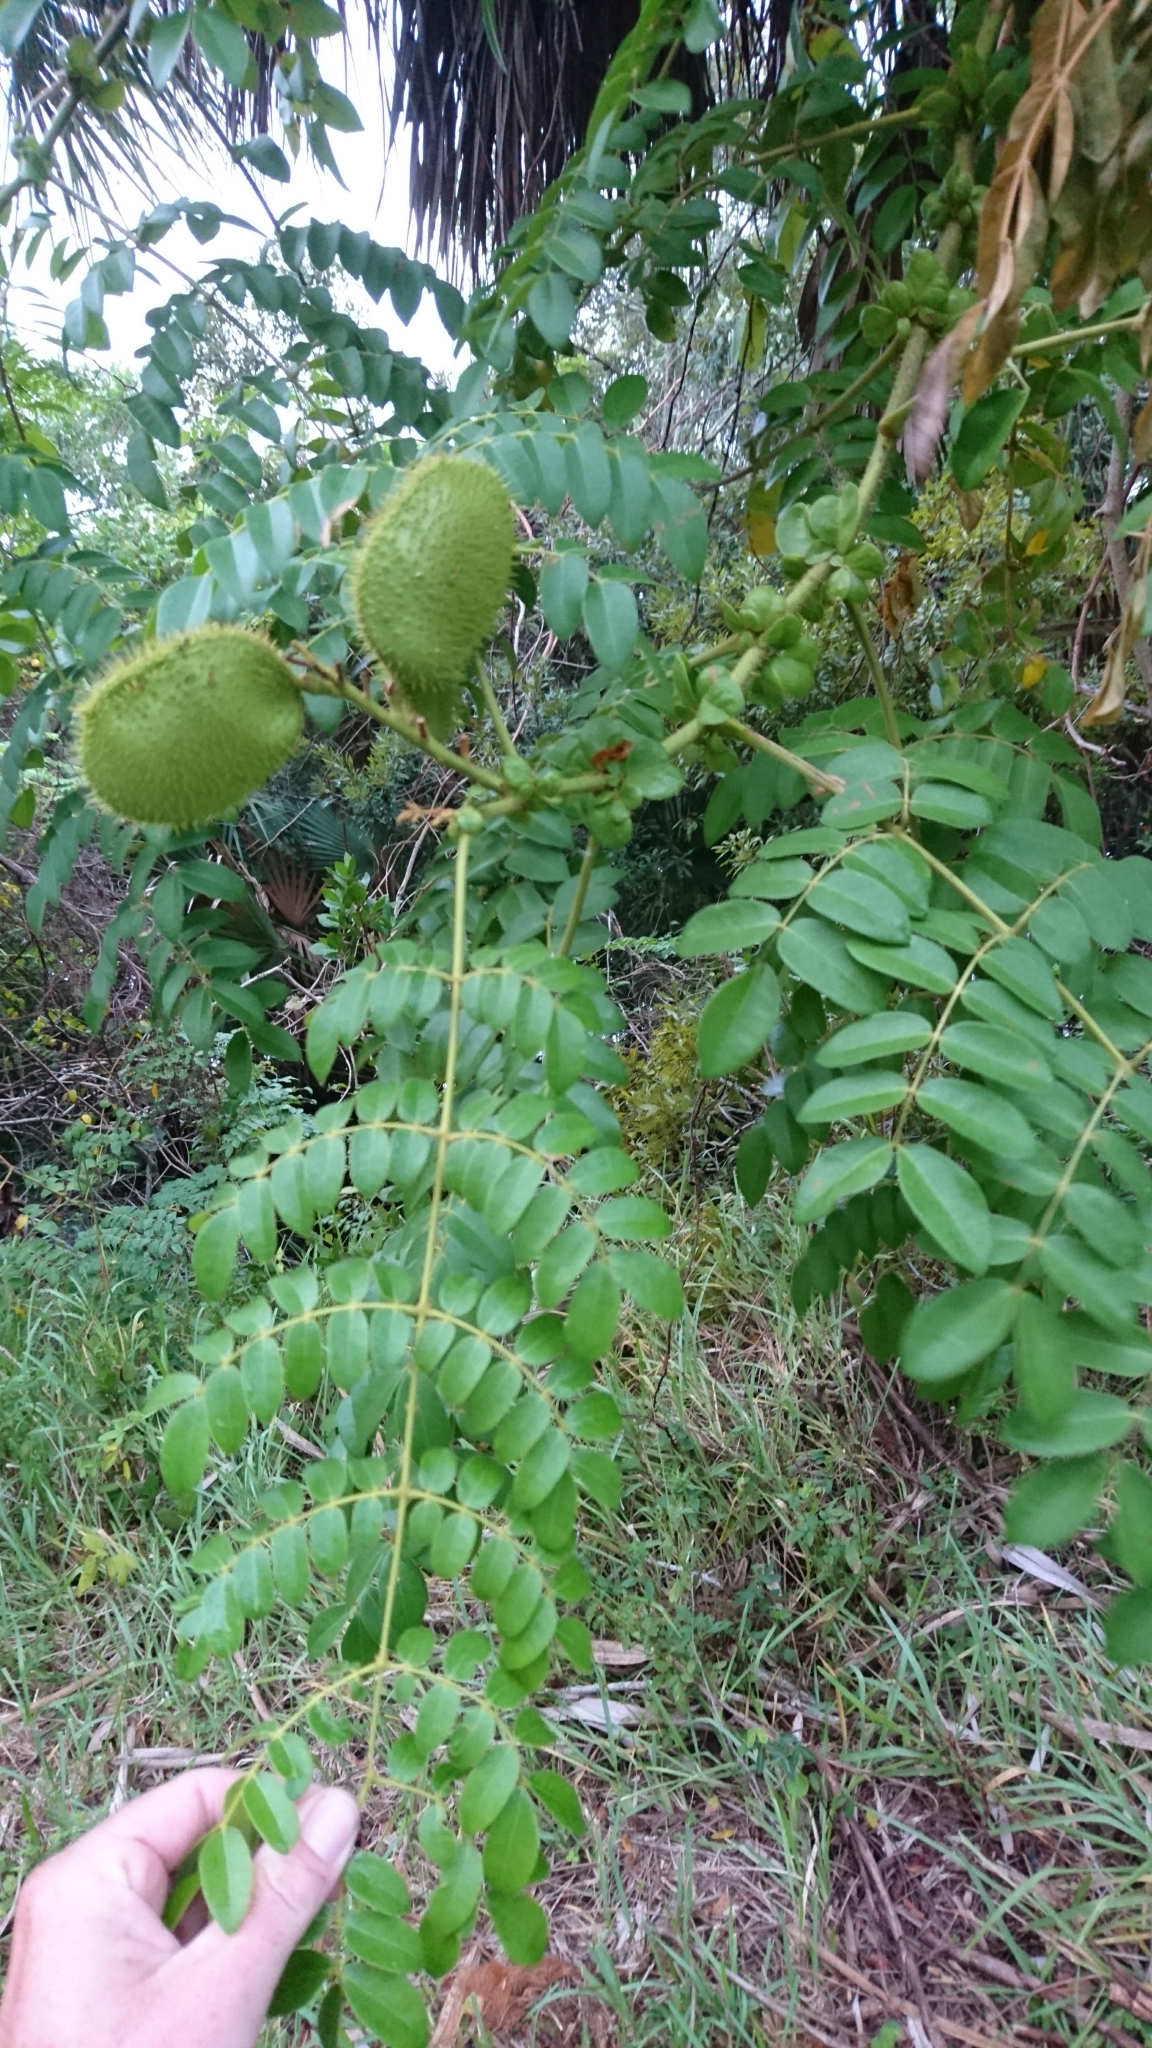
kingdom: Plantae
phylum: Tracheophyta
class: Magnoliopsida
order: Fabales
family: Fabaceae
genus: Guilandina
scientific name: Guilandina bonduc
